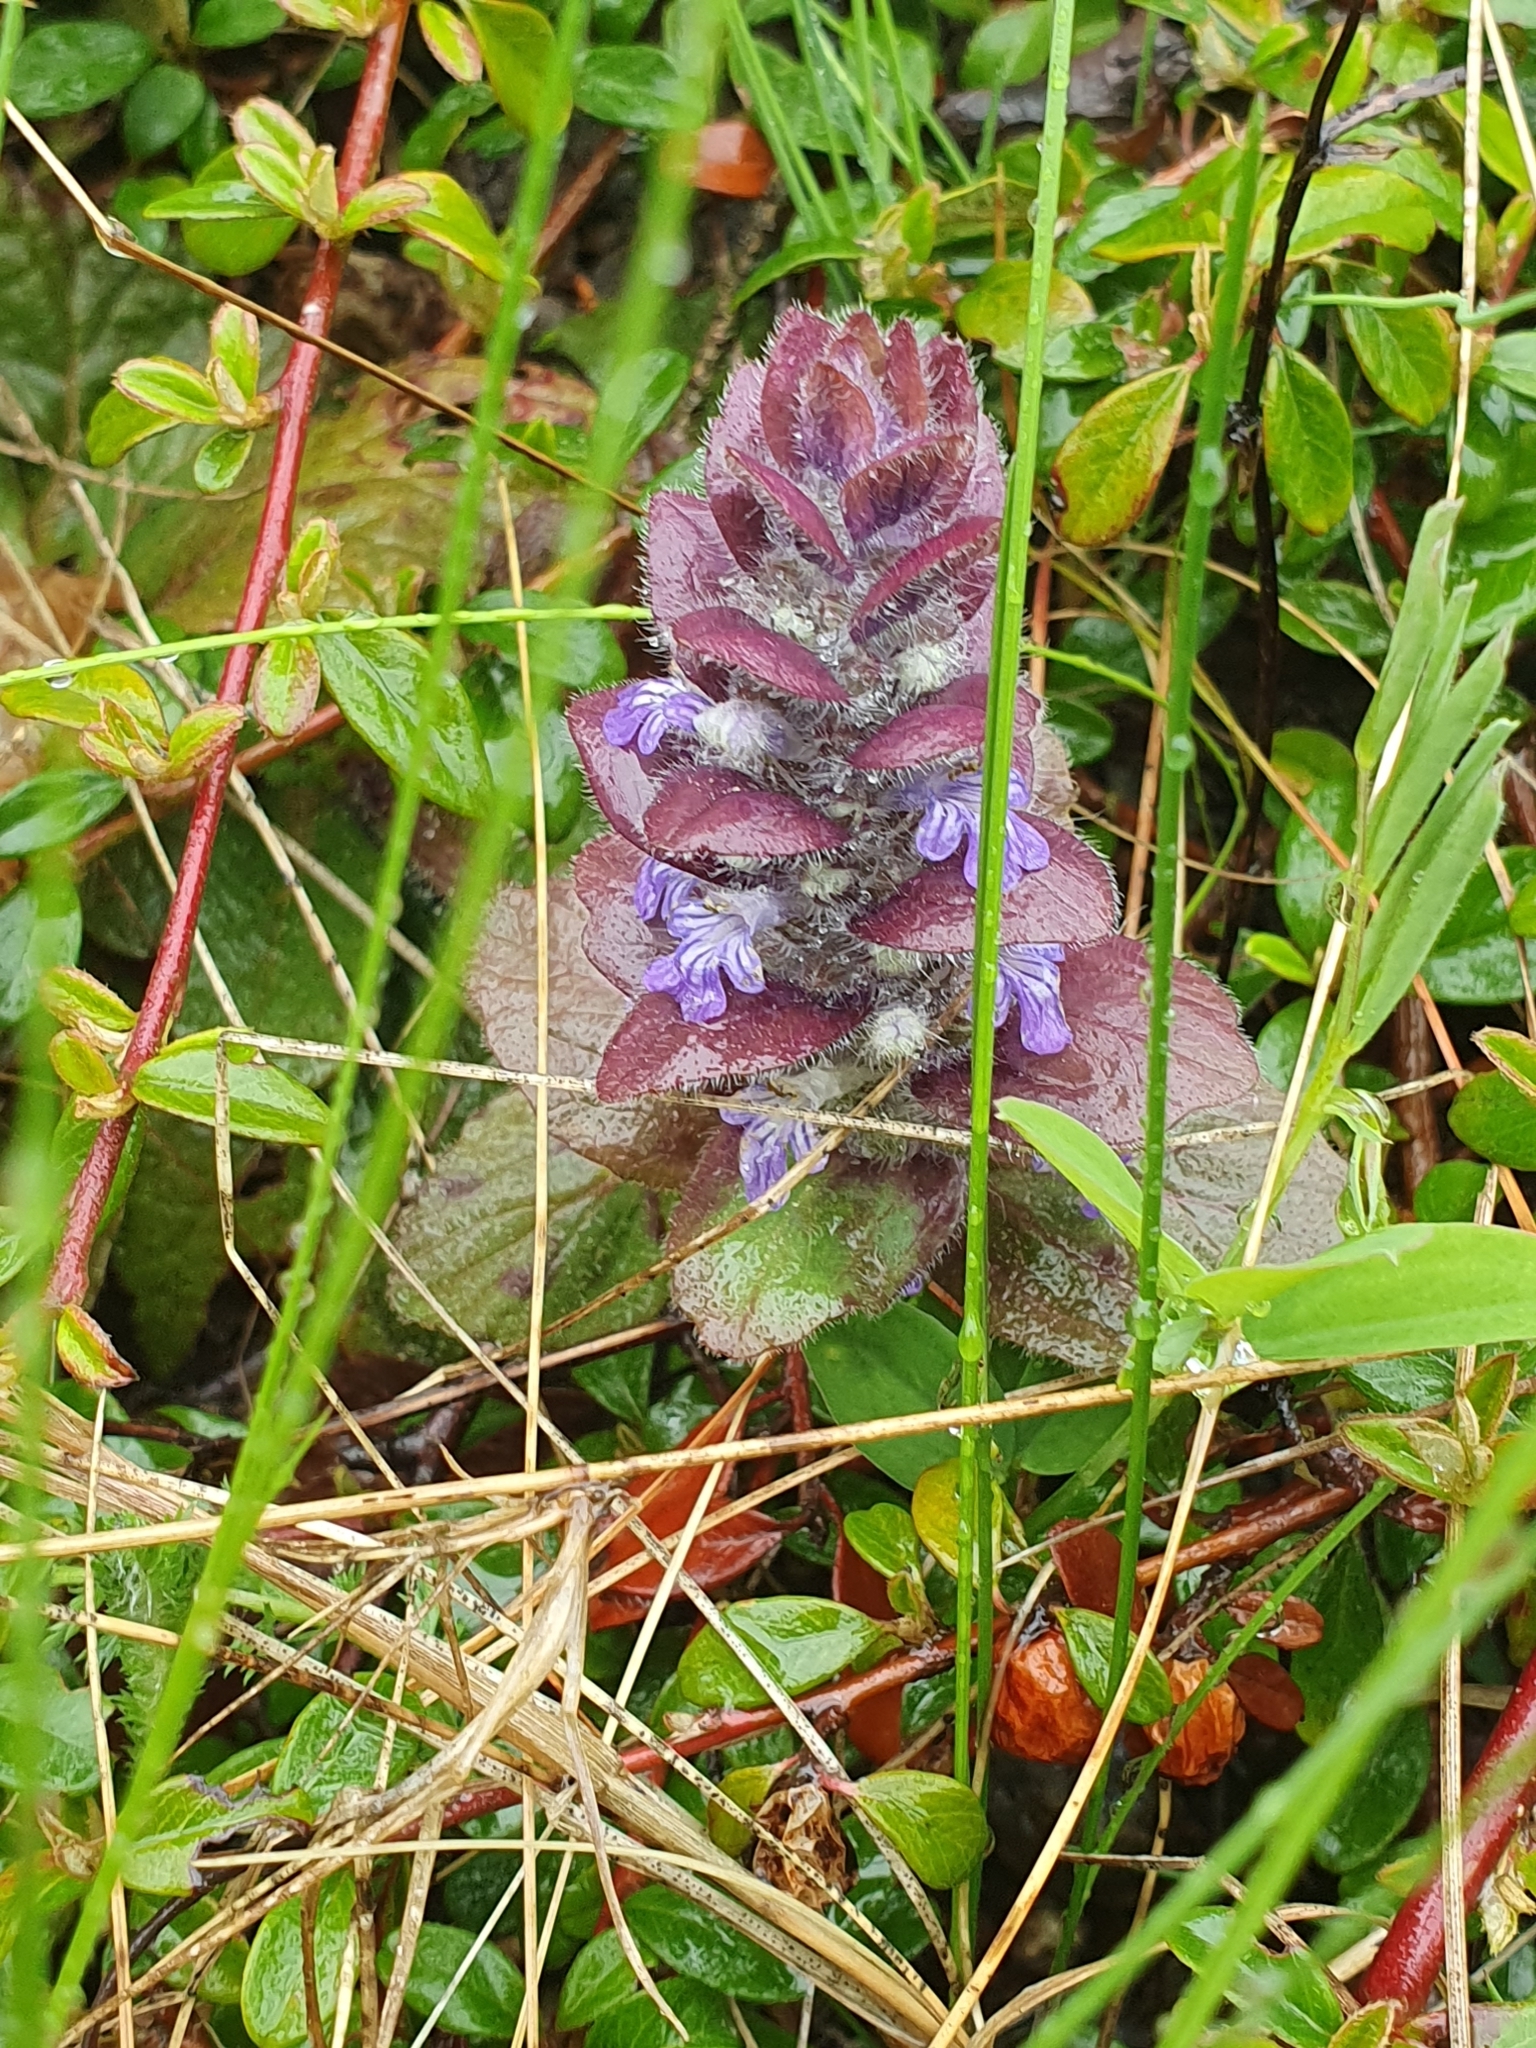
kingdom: Plantae
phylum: Tracheophyta
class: Magnoliopsida
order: Lamiales
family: Lamiaceae
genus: Ajuga
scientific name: Ajuga pyramidalis
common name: Pyramid bugle
